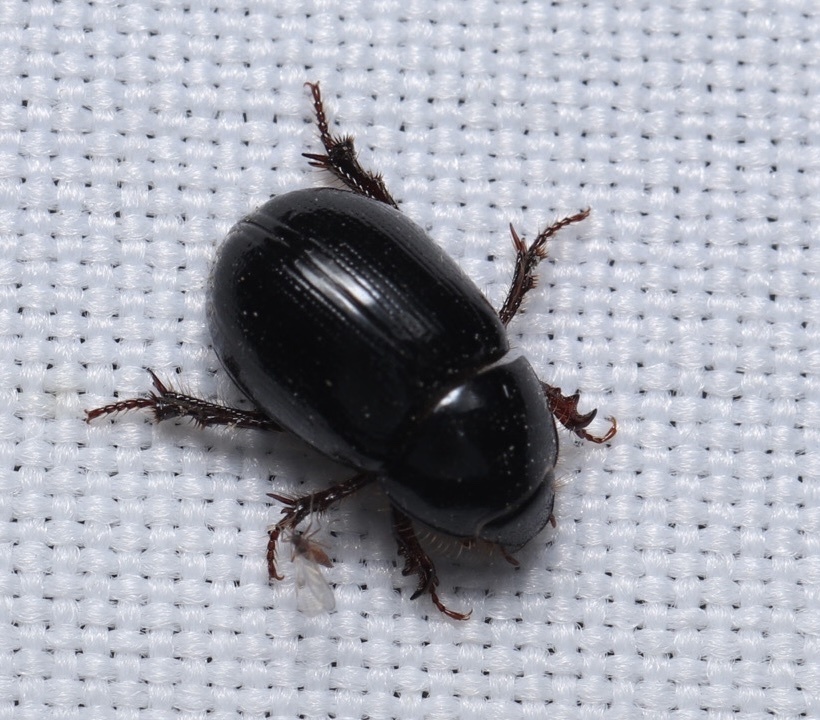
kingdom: Animalia
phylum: Arthropoda
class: Insecta
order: Coleoptera
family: Hybosoridae
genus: Hybosorus
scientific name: Hybosorus illigeri
